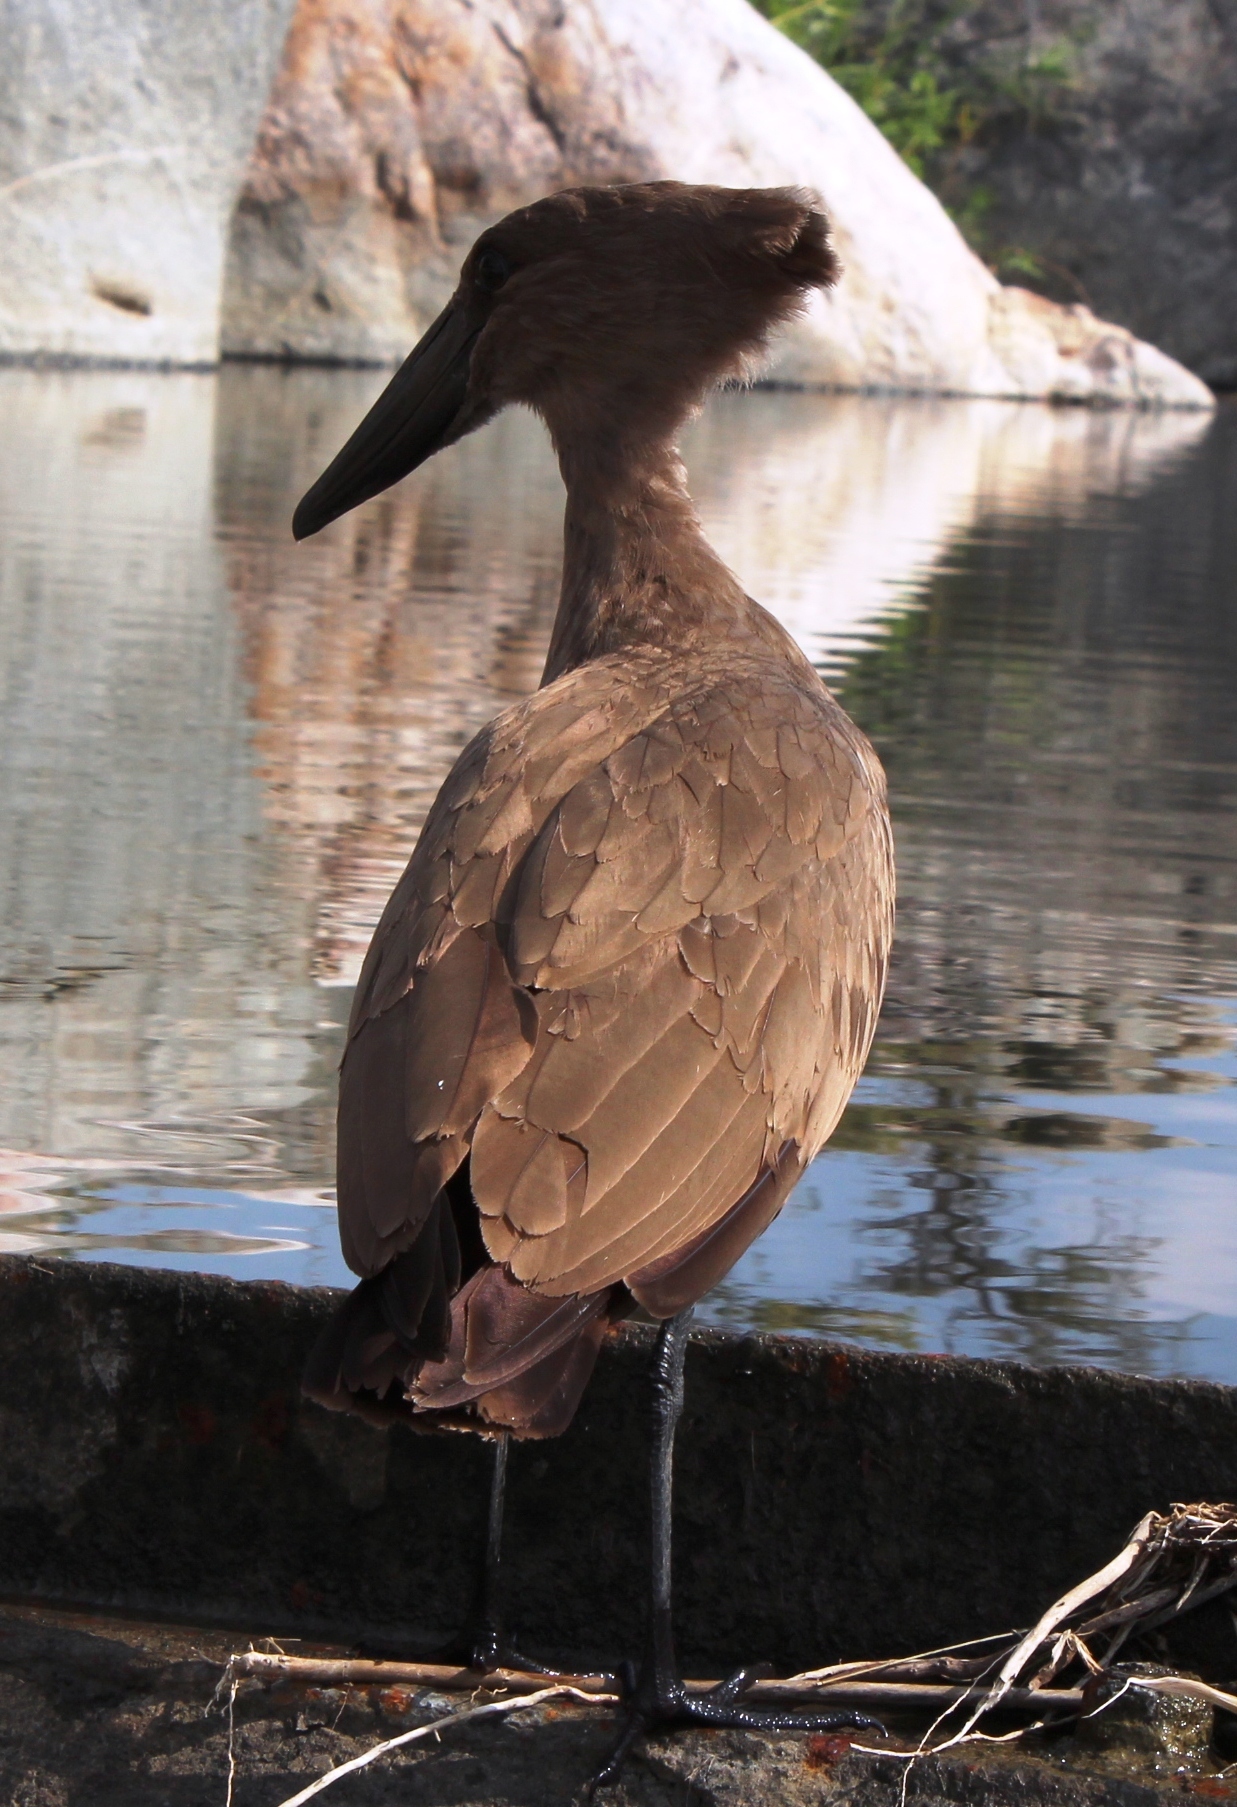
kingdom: Animalia
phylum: Chordata
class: Aves
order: Pelecaniformes
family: Scopidae
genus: Scopus
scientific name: Scopus umbretta
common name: Hamerkop
